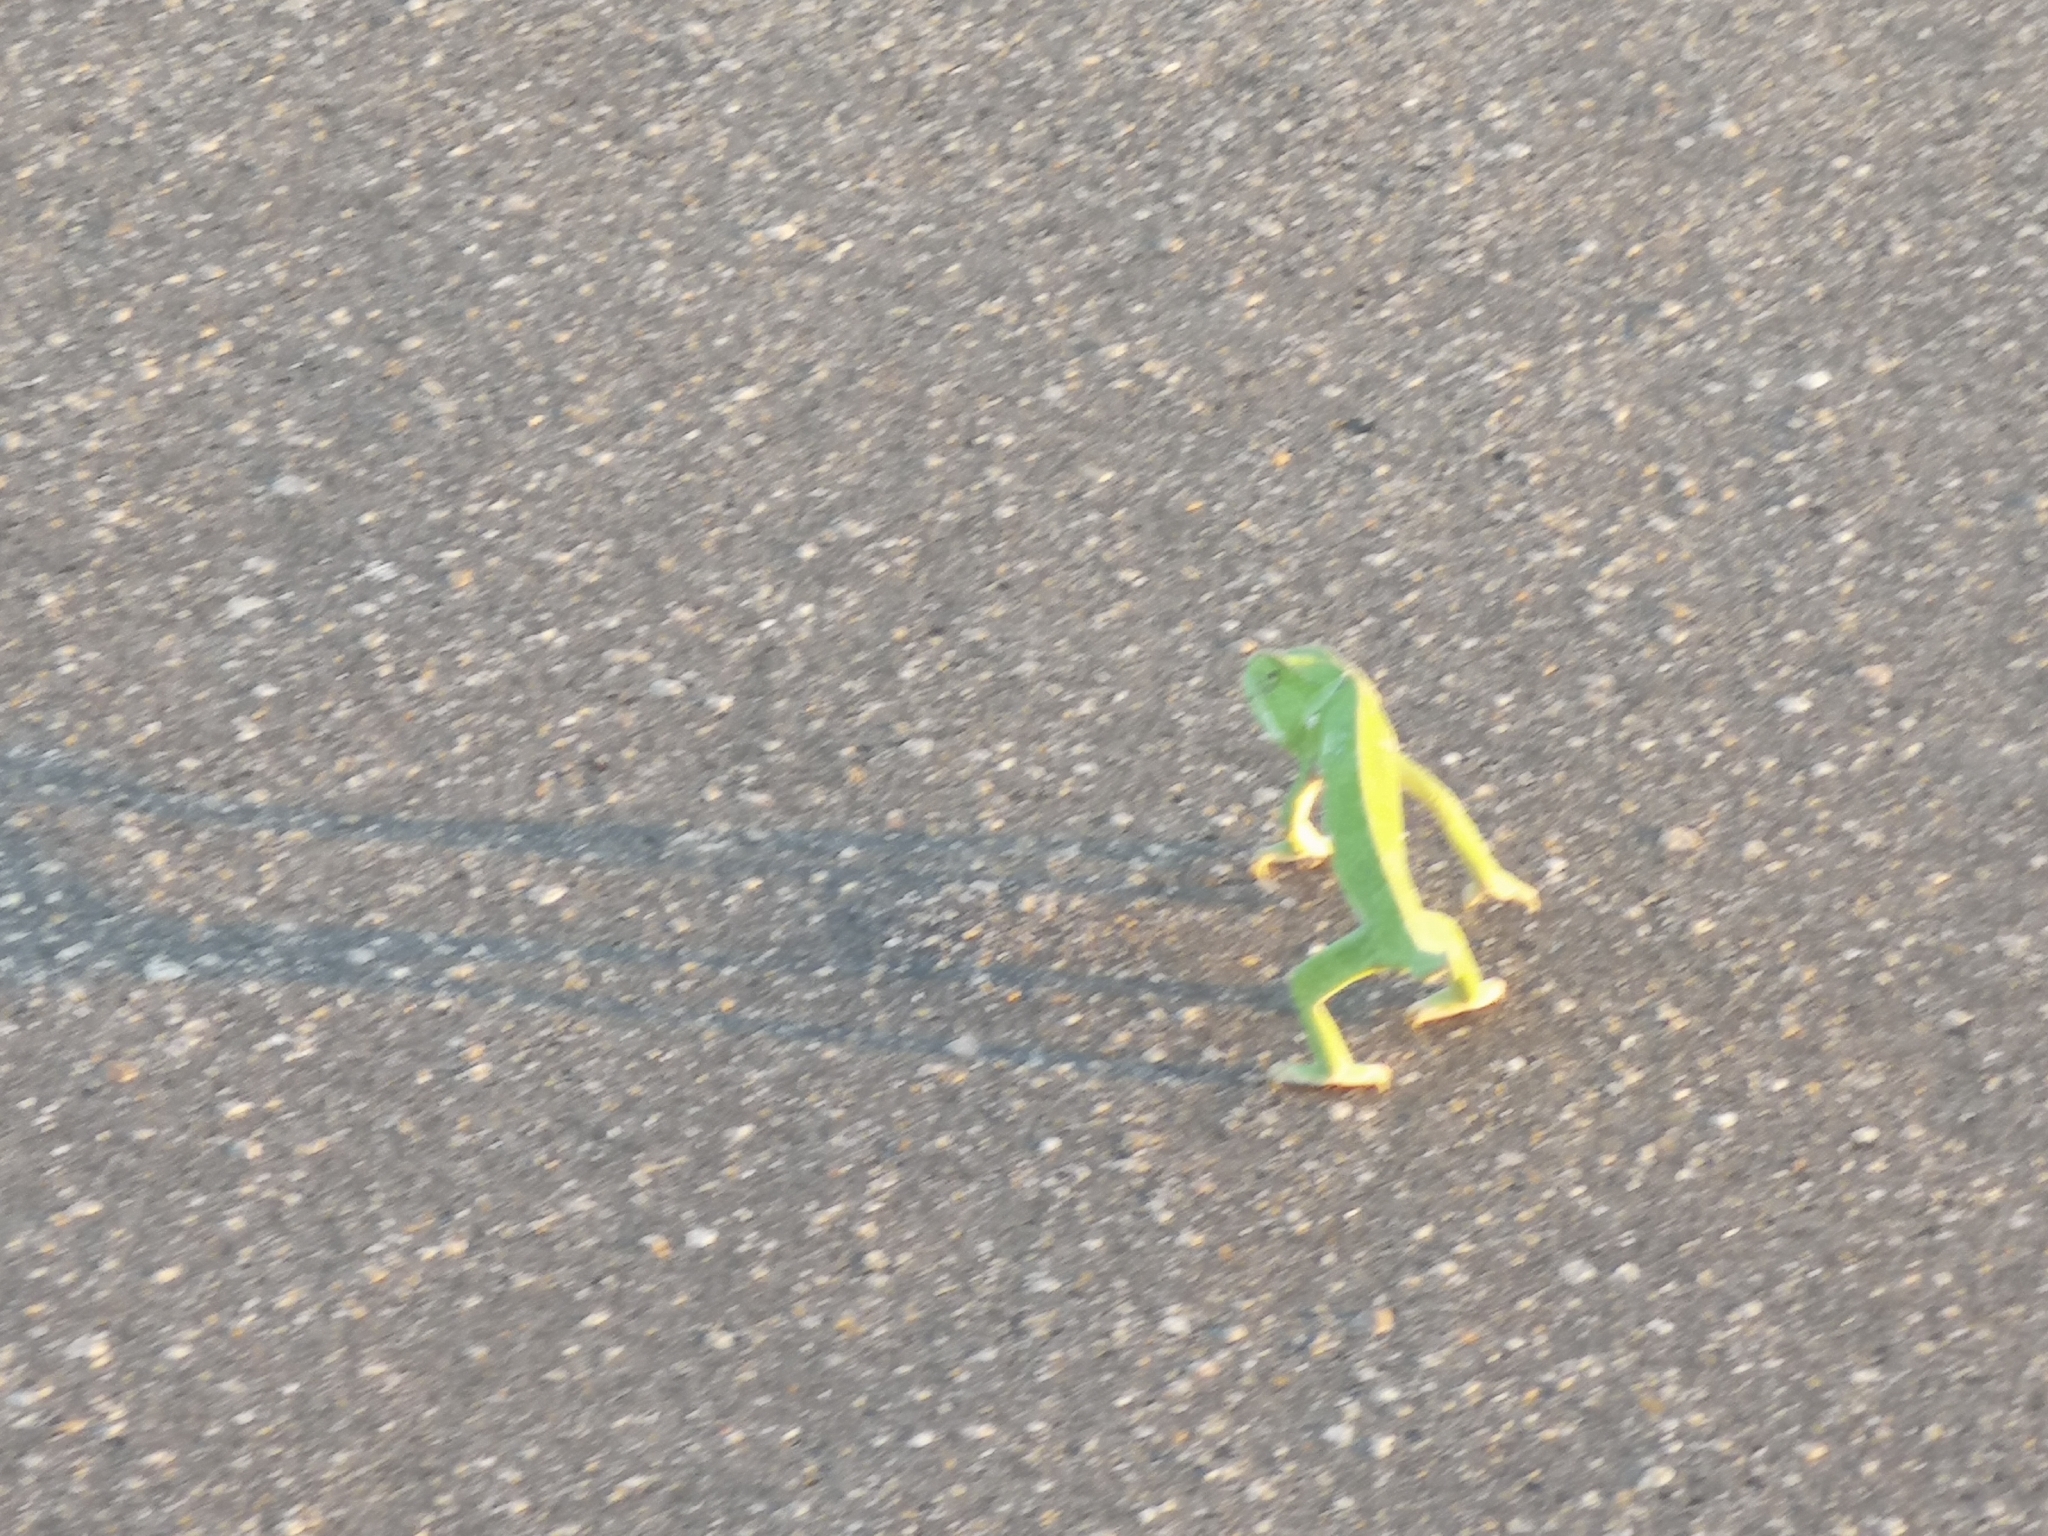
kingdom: Animalia
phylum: Chordata
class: Squamata
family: Chamaeleonidae
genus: Chamaeleo
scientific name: Chamaeleo dilepis
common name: Flapneck chameleon
